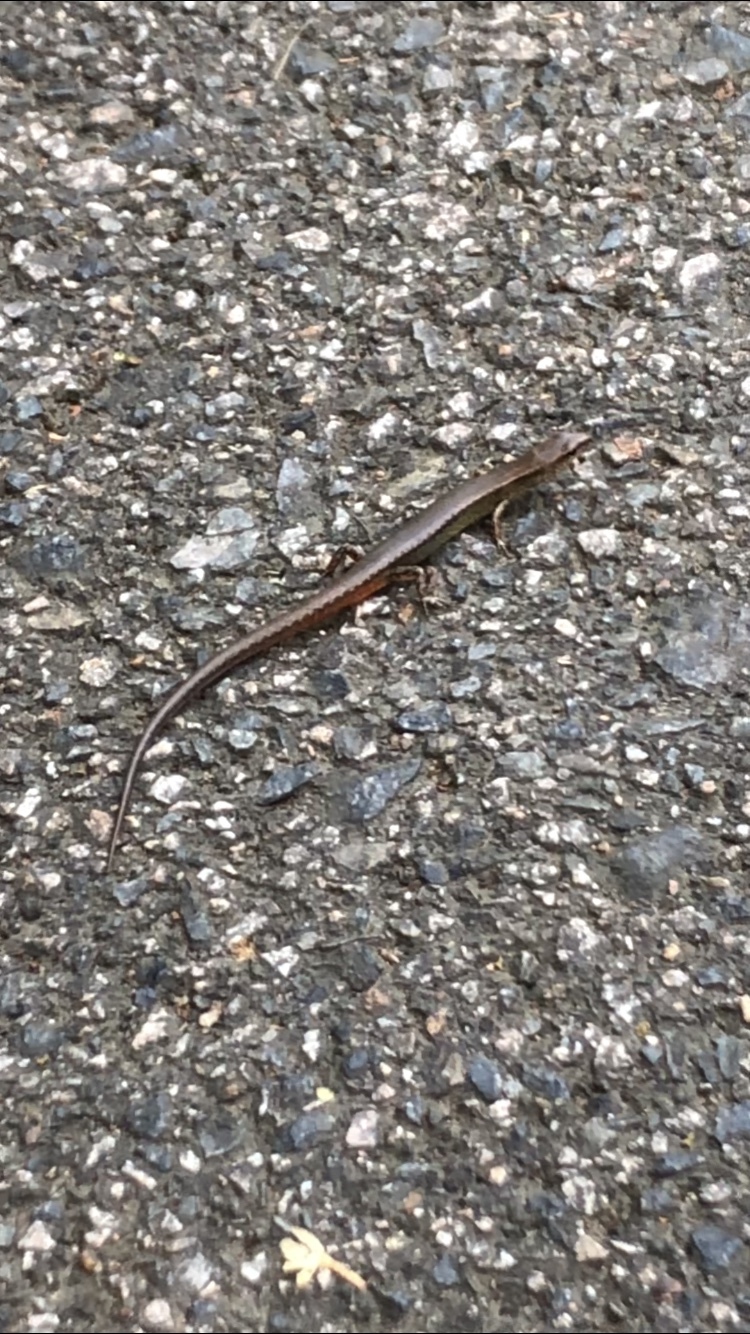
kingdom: Animalia
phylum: Chordata
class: Squamata
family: Scincidae
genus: Scincella
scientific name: Scincella modesta
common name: Modest ground skink
